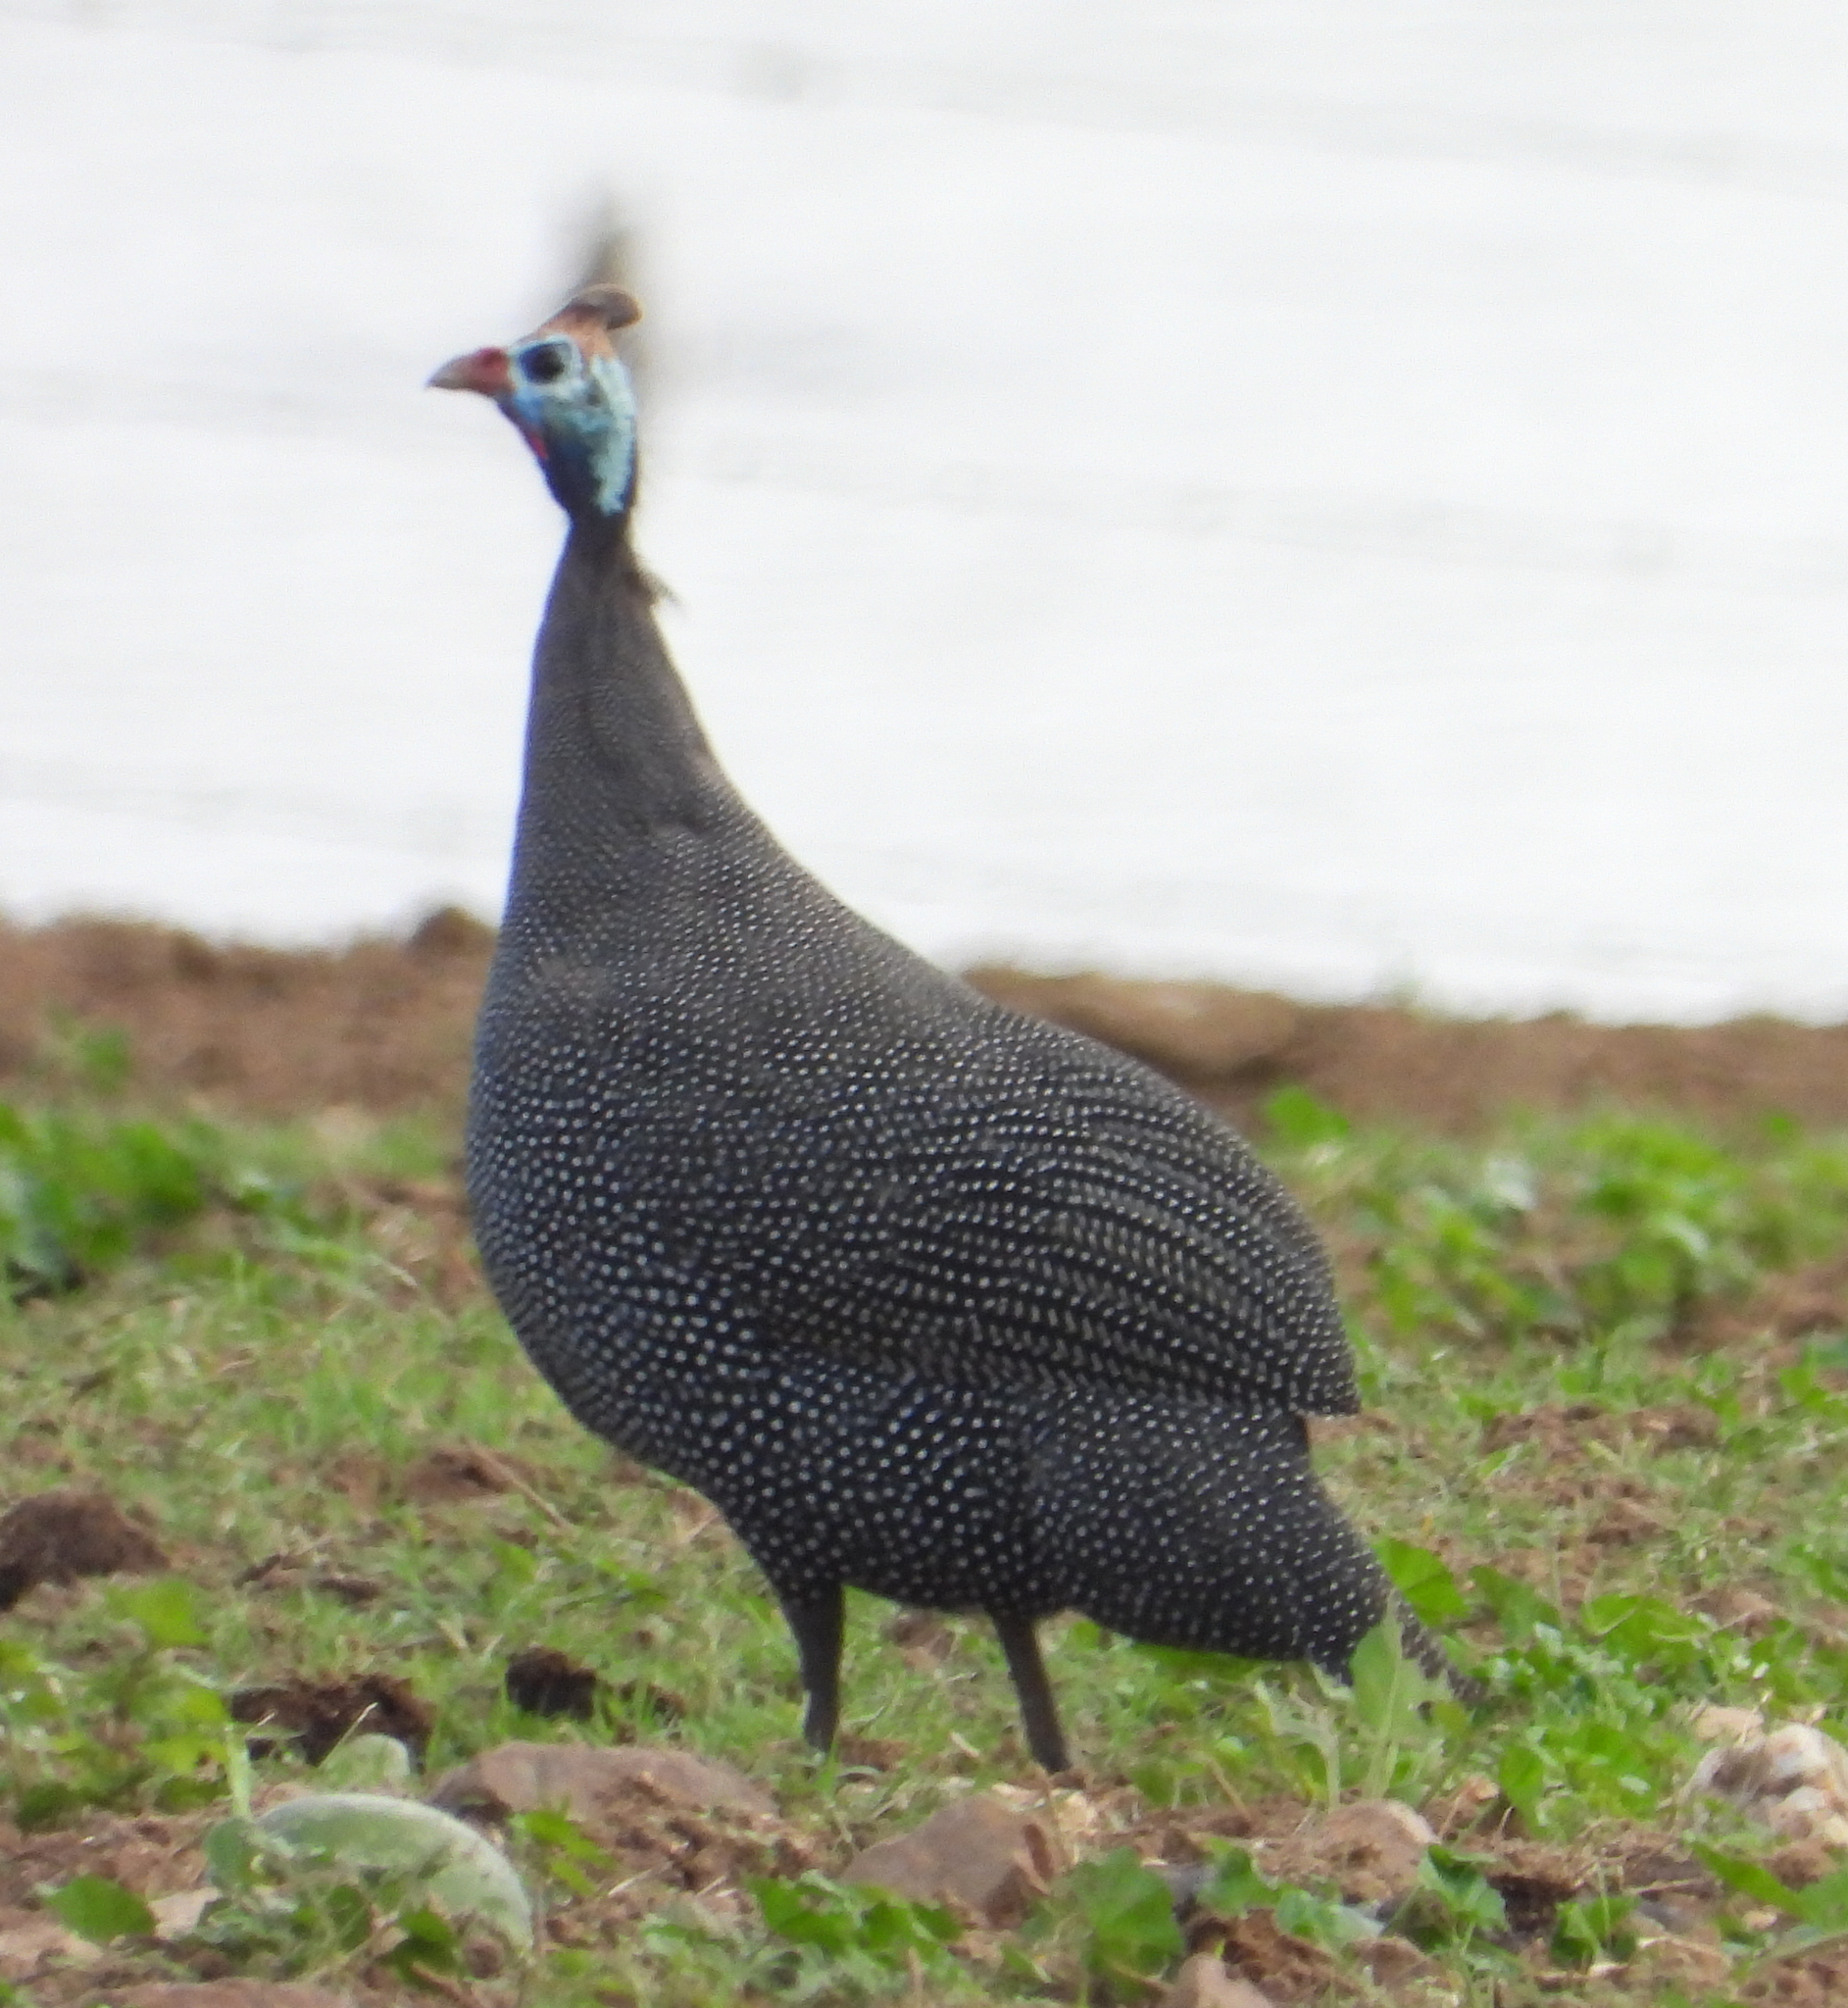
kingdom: Animalia
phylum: Chordata
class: Aves
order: Galliformes
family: Numididae
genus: Numida
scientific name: Numida meleagris
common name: Helmeted guineafowl
